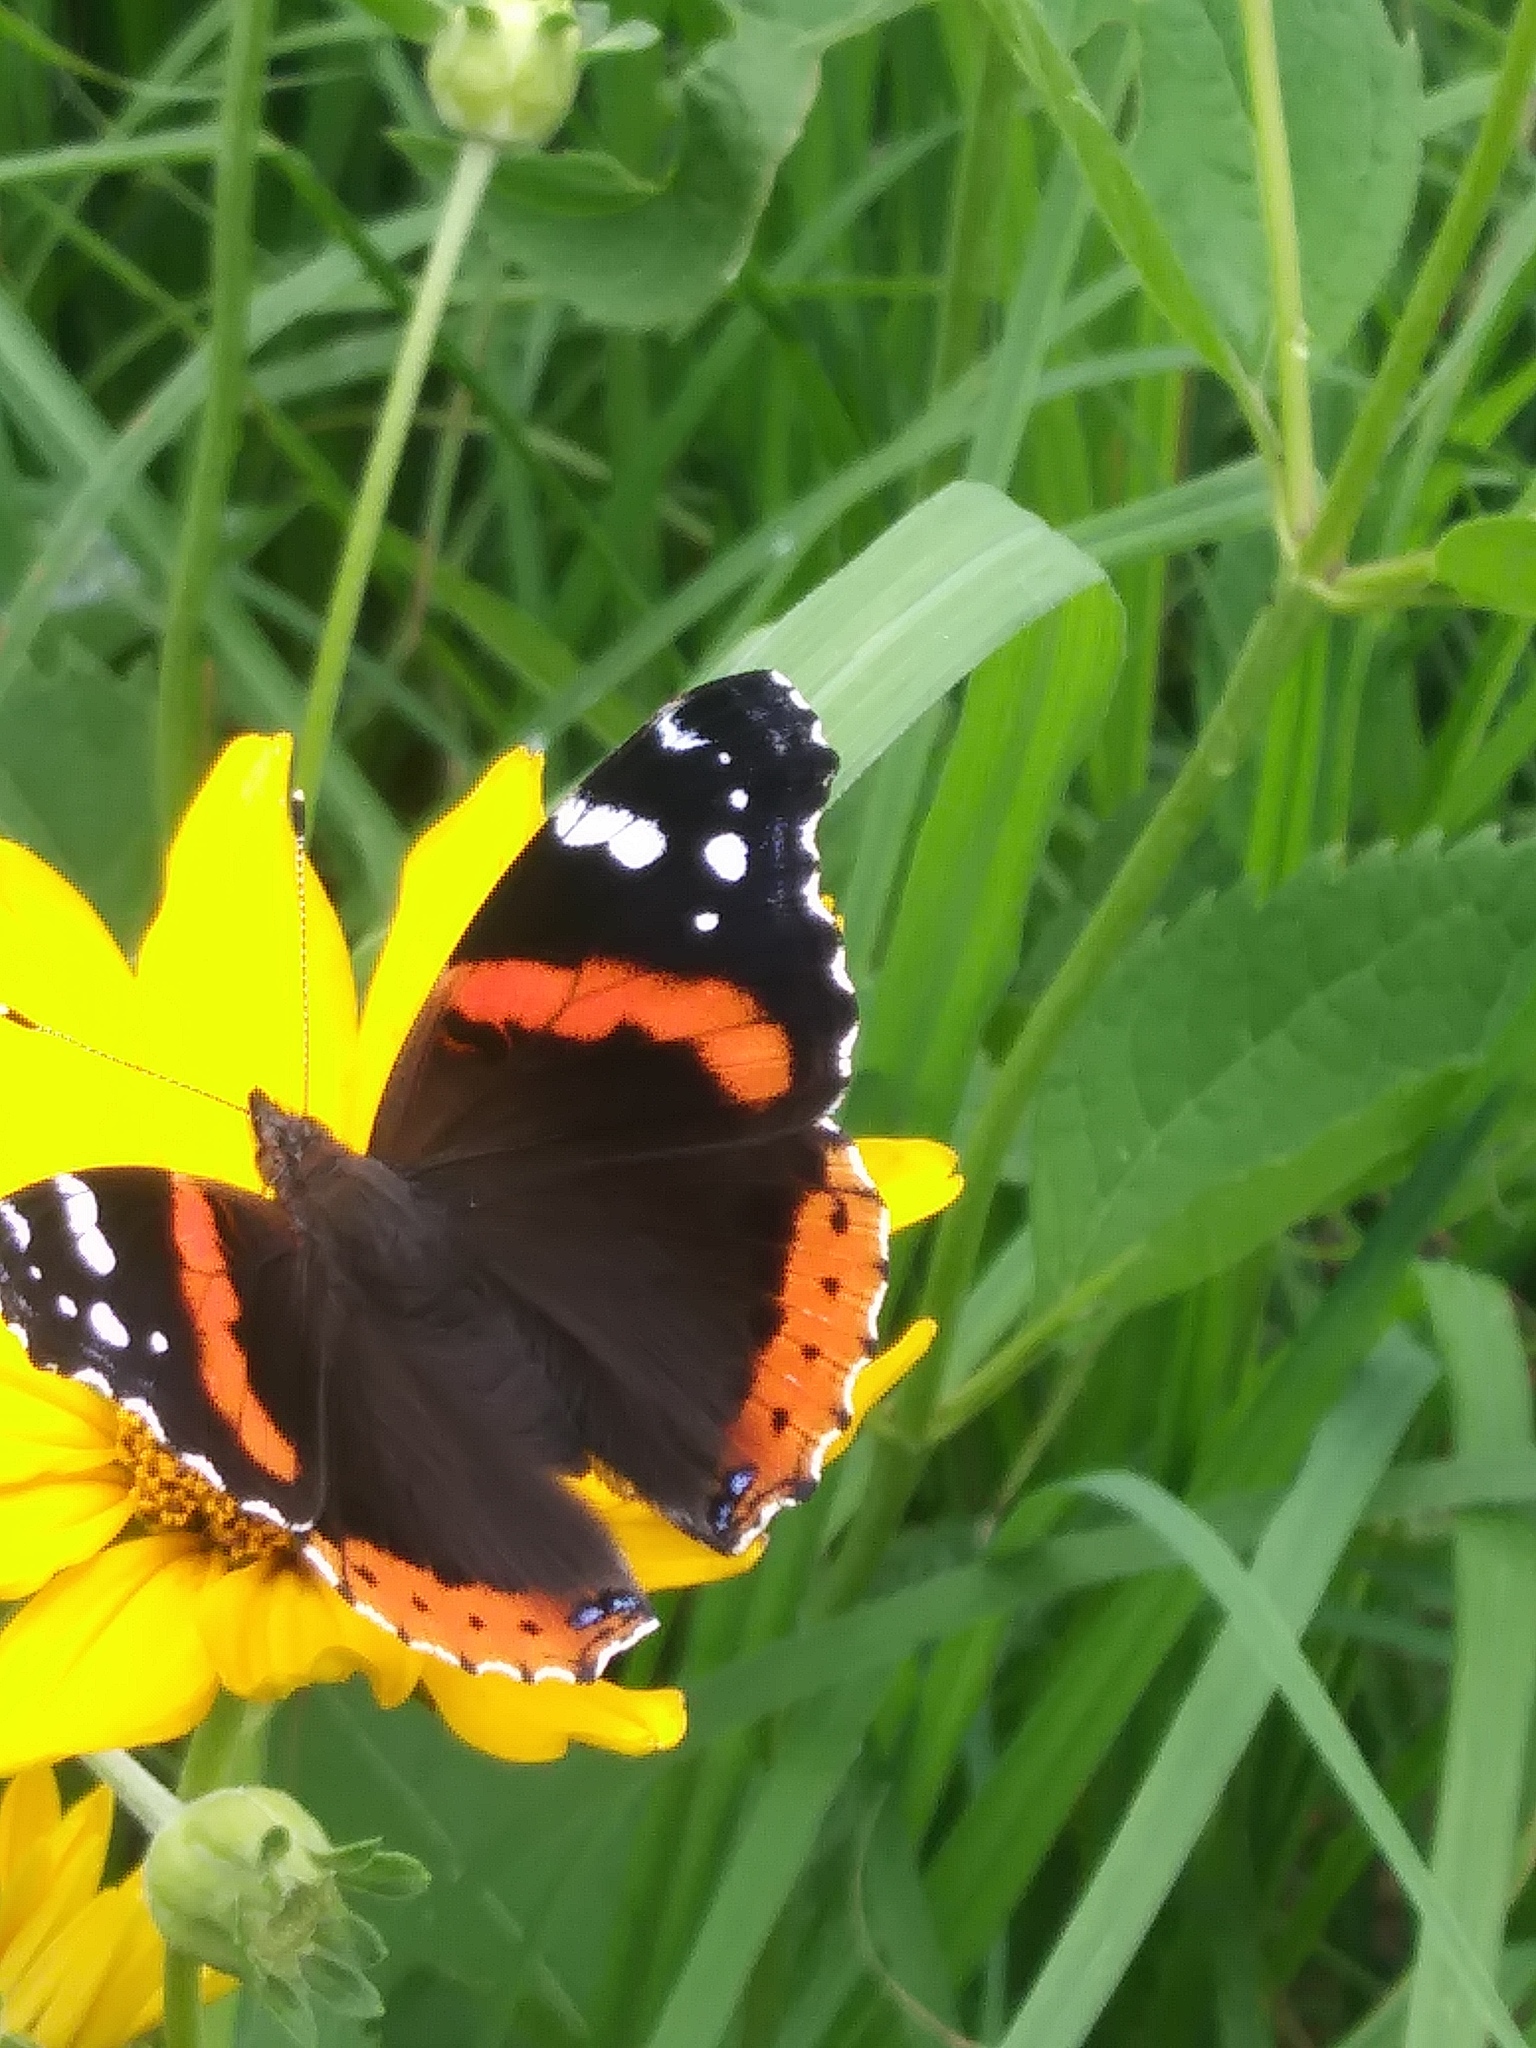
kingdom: Animalia
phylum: Arthropoda
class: Insecta
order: Lepidoptera
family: Nymphalidae
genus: Vanessa
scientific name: Vanessa atalanta
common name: Red admiral
